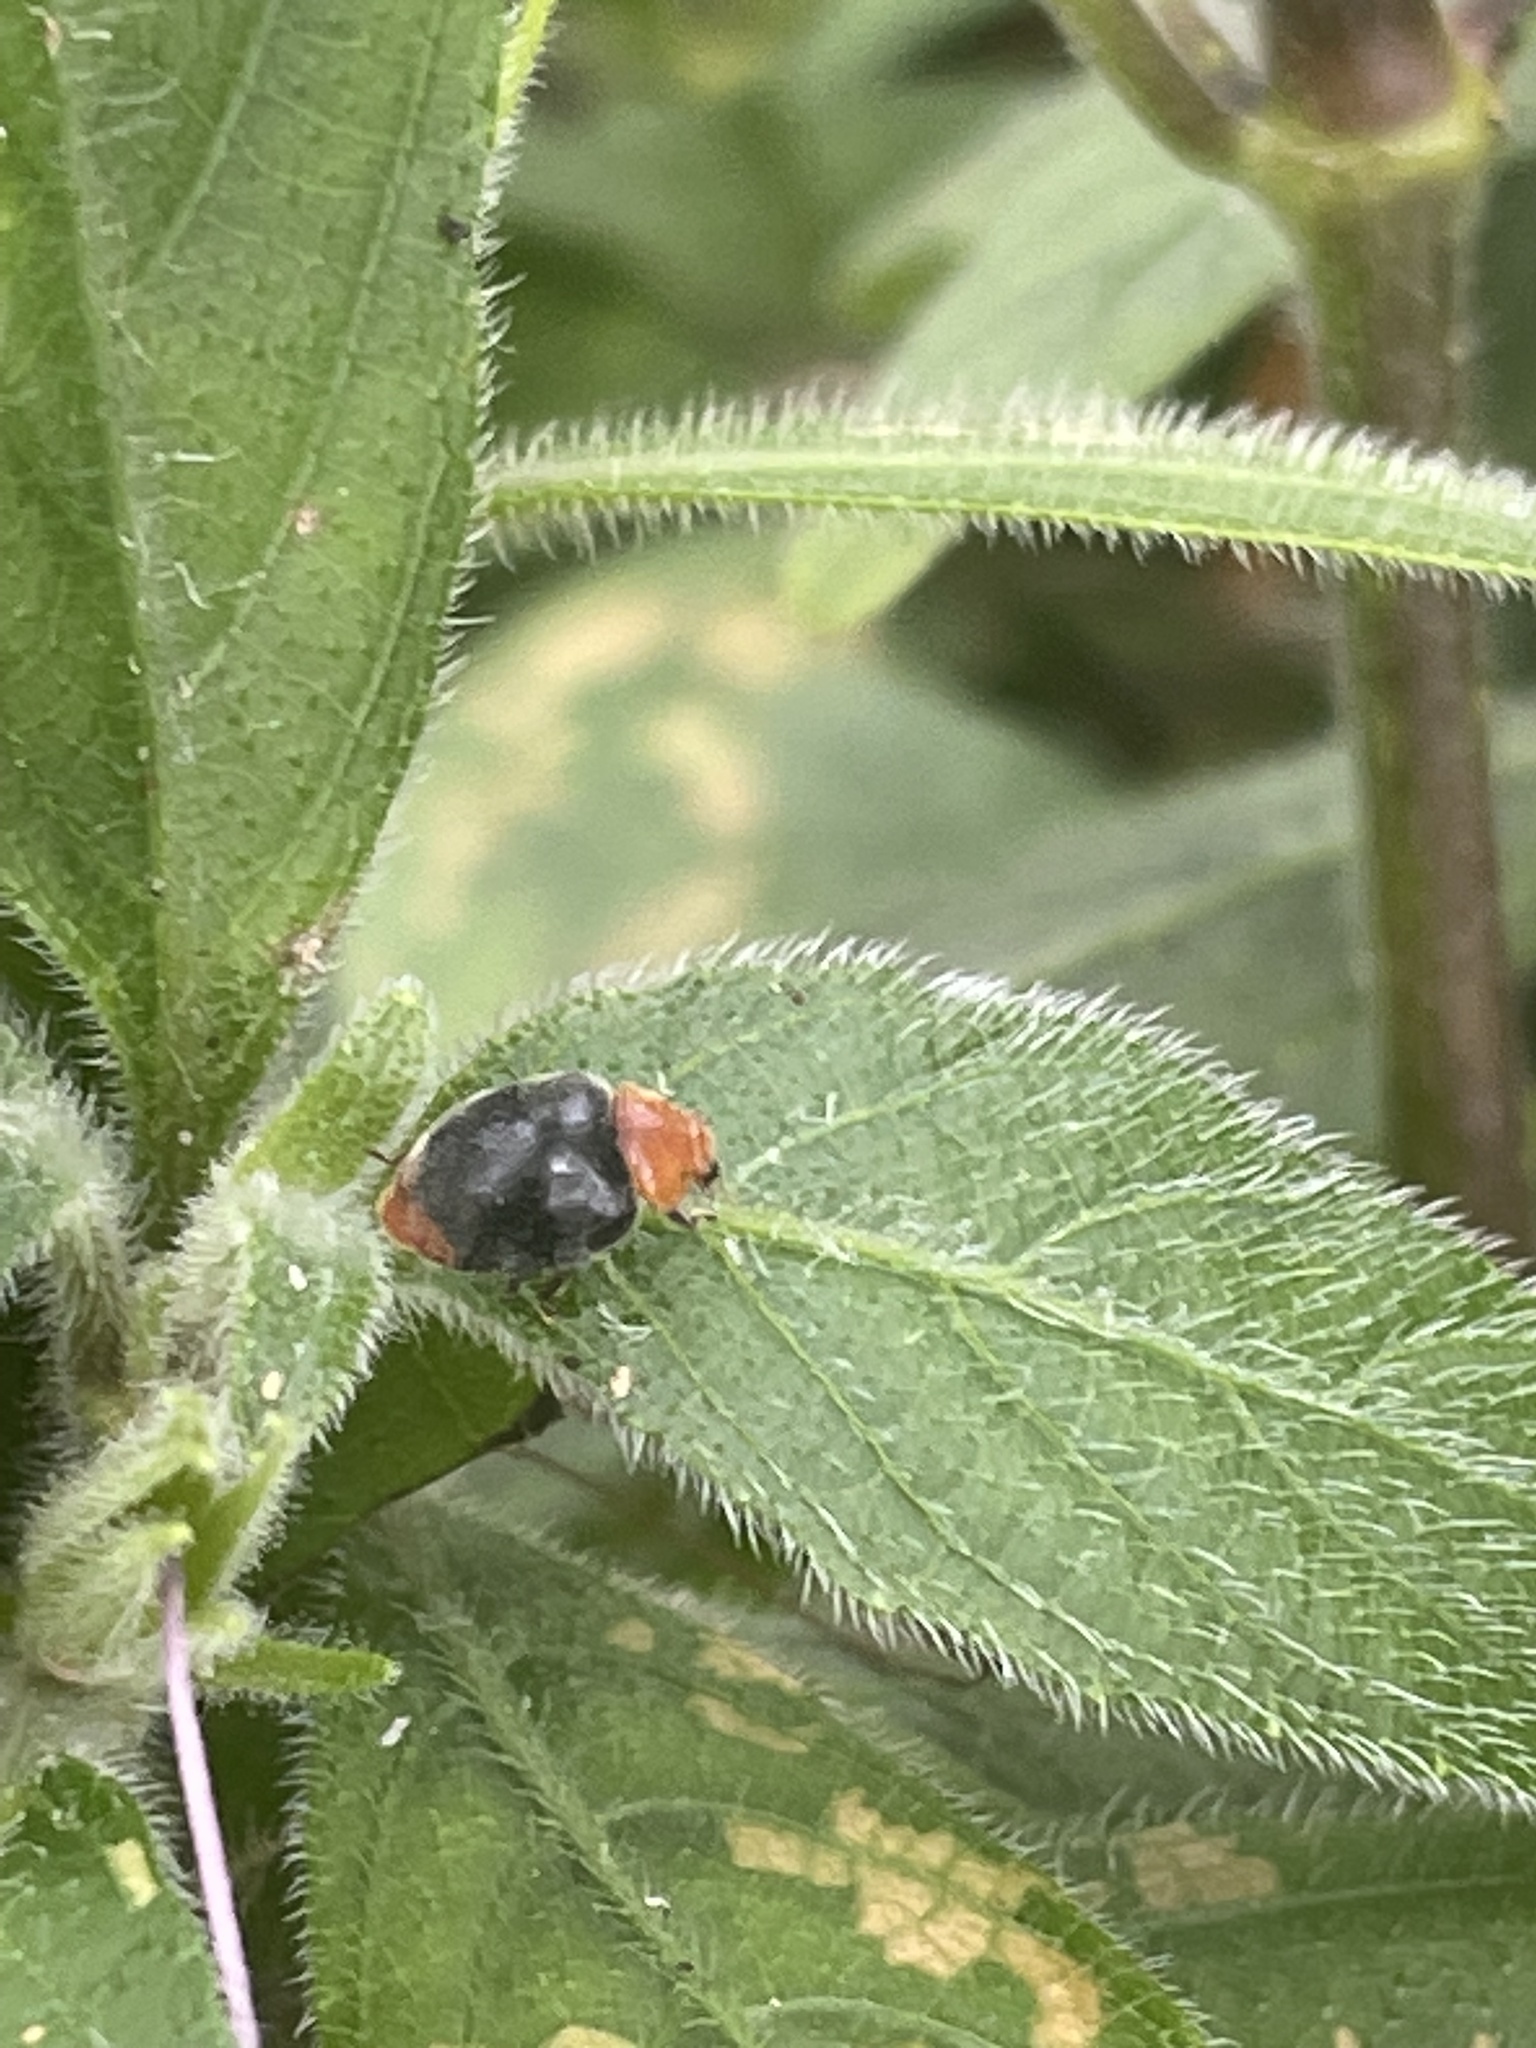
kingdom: Animalia
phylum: Arthropoda
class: Insecta
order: Coleoptera
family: Coccinellidae
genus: Cryptolaemus
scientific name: Cryptolaemus montrouzieri
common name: Mealybug destroyer
